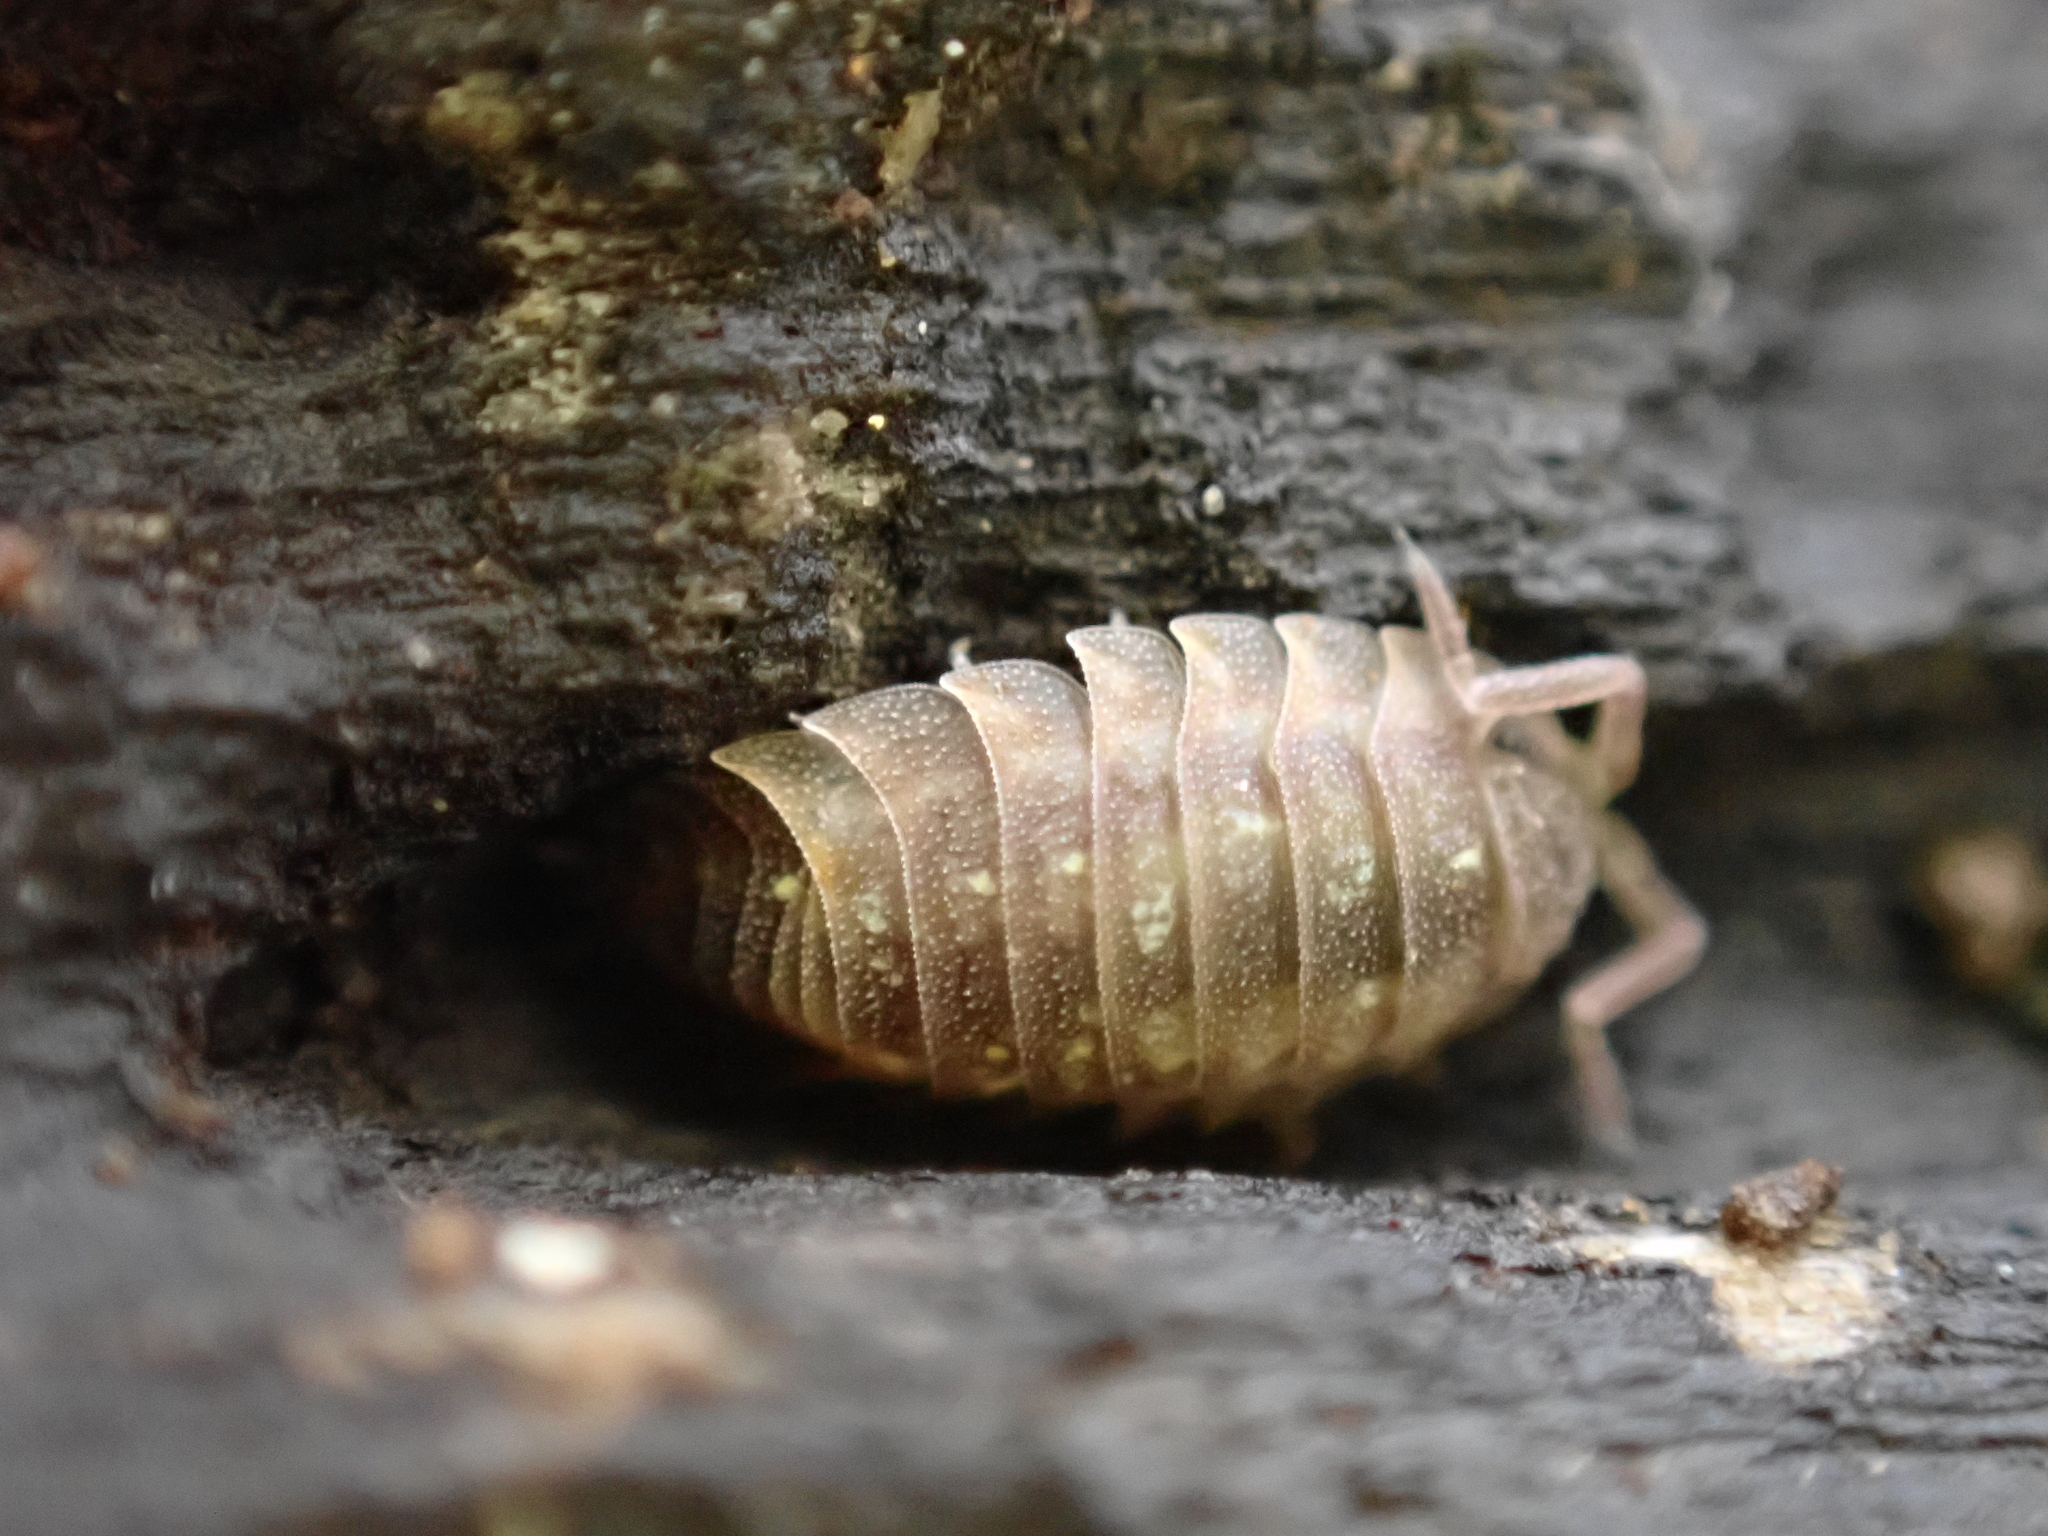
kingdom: Animalia
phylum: Arthropoda
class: Malacostraca
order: Isopoda
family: Oniscidae
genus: Oniscus
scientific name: Oniscus asellus
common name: Common shiny woodlouse
